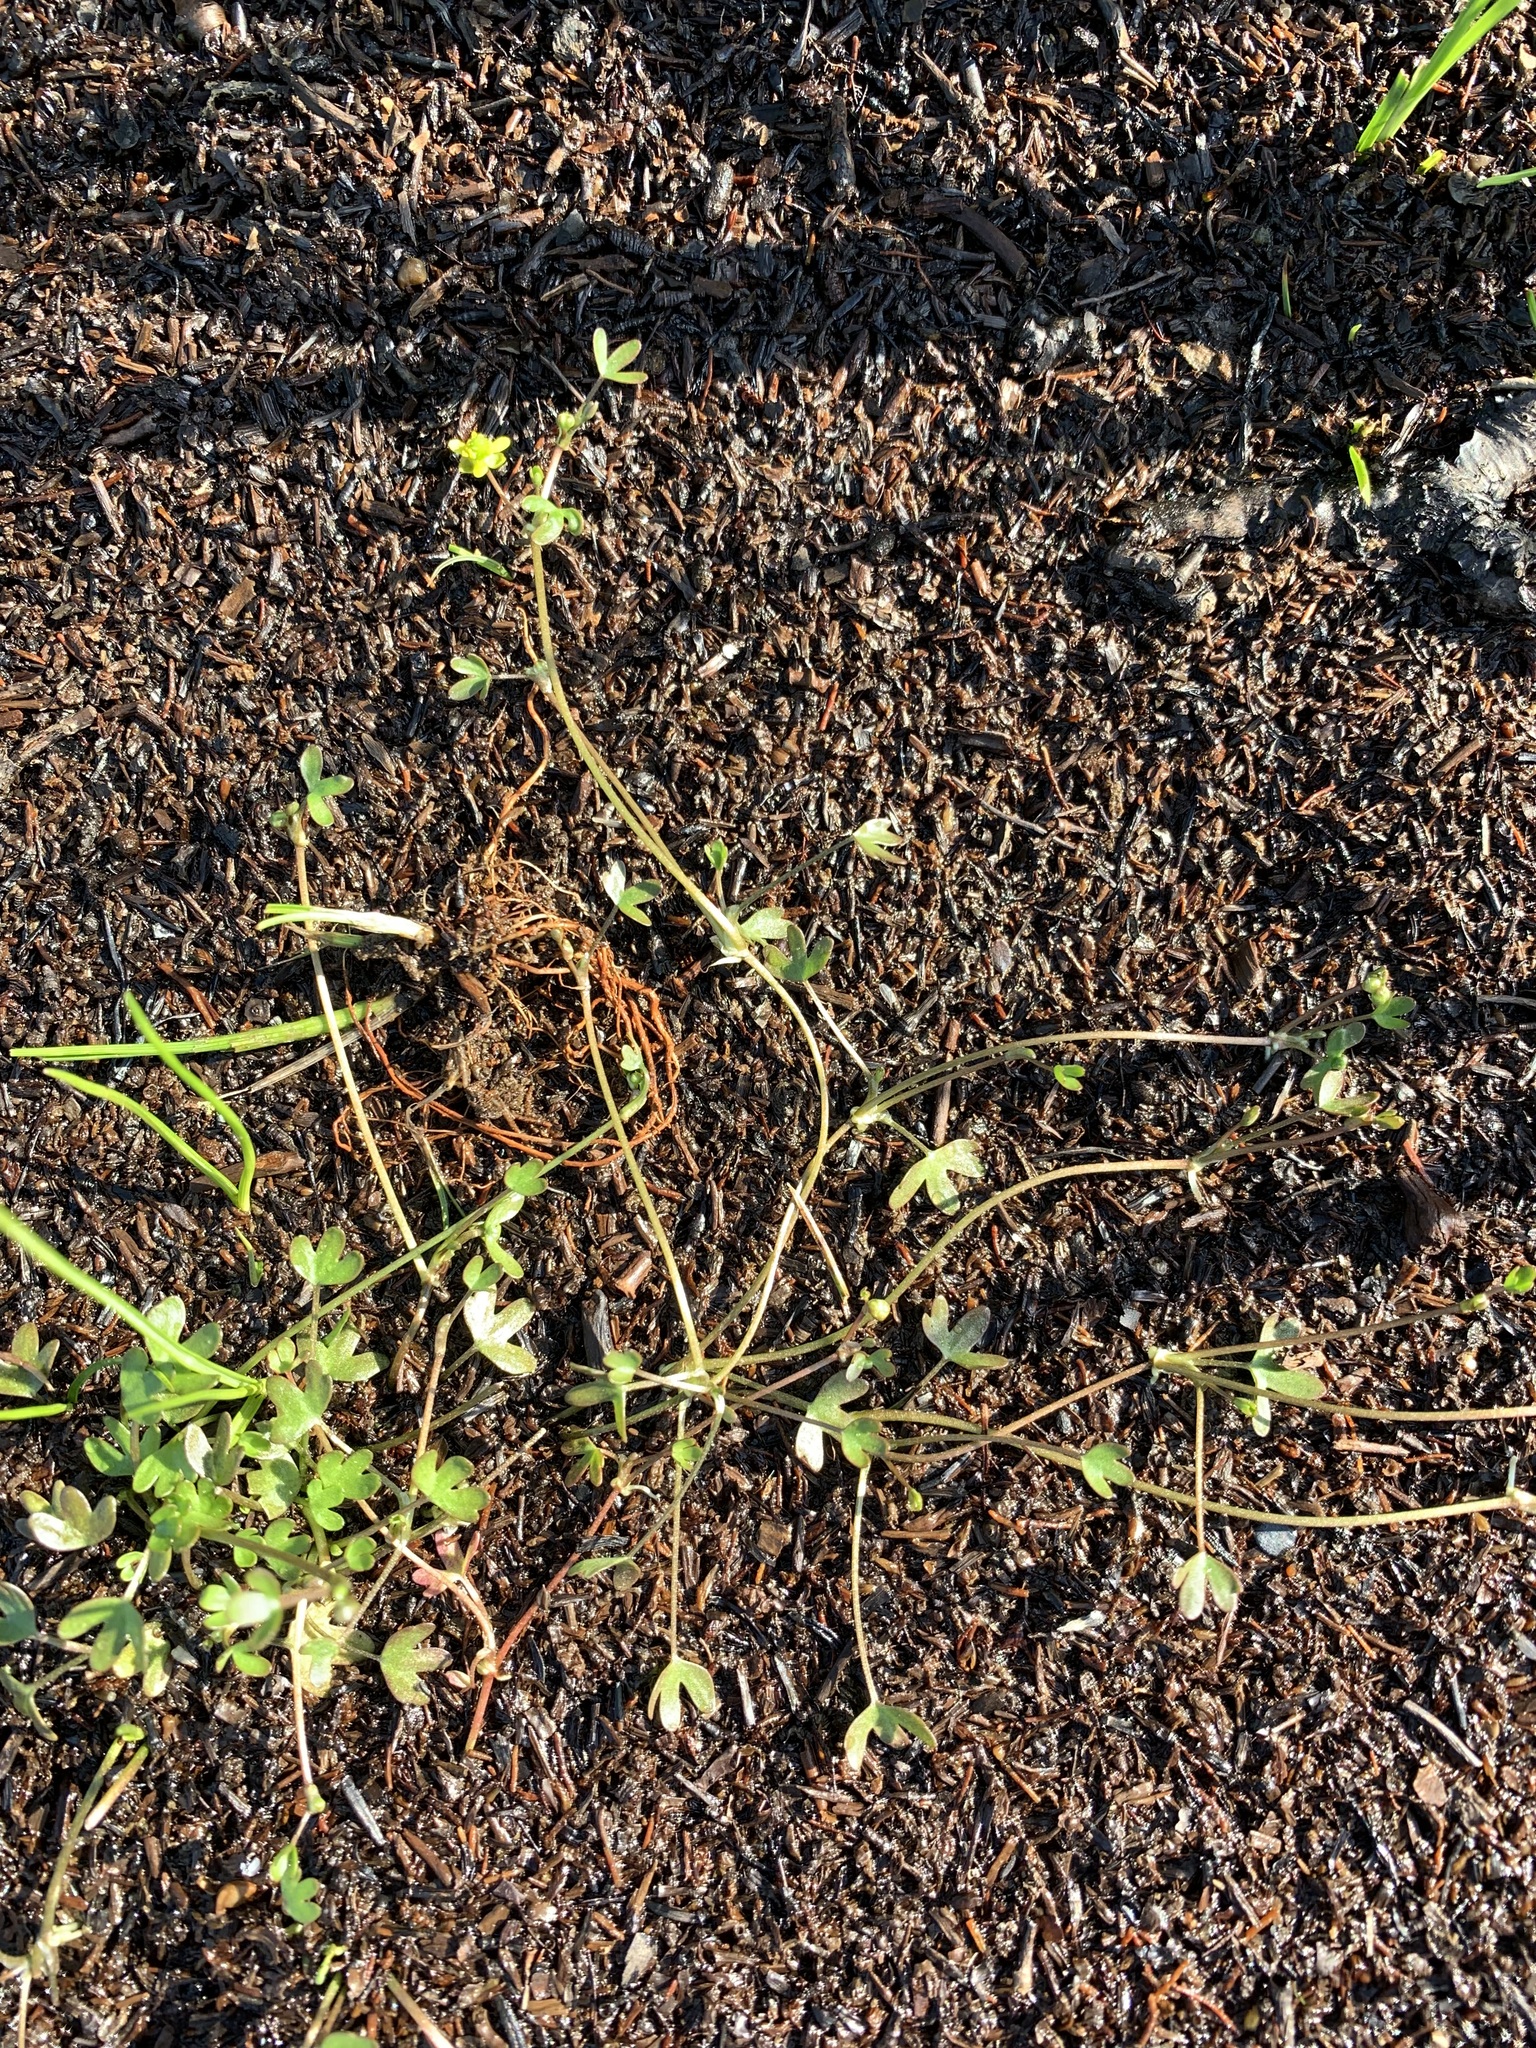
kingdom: Plantae
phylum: Tracheophyta
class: Magnoliopsida
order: Ranunculales
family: Ranunculaceae
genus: Ranunculus
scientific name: Ranunculus hyperboreus
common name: Arctic buttercup
